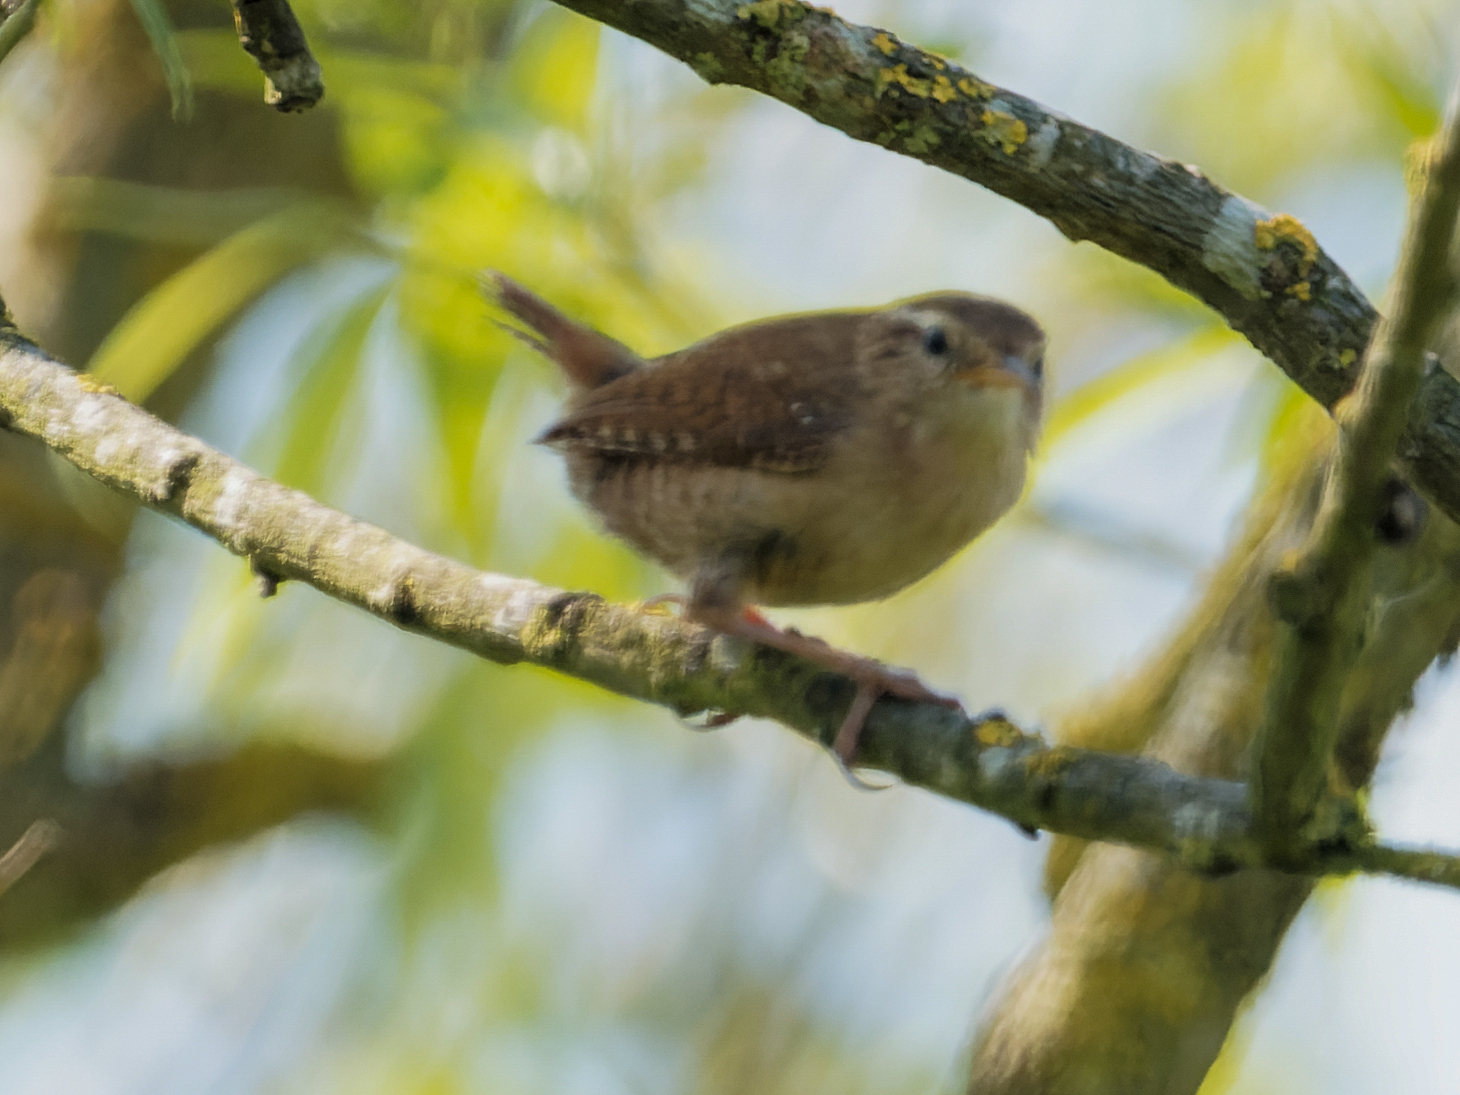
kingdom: Animalia
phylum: Chordata
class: Aves
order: Passeriformes
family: Troglodytidae
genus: Troglodytes
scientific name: Troglodytes troglodytes
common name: Eurasian wren
